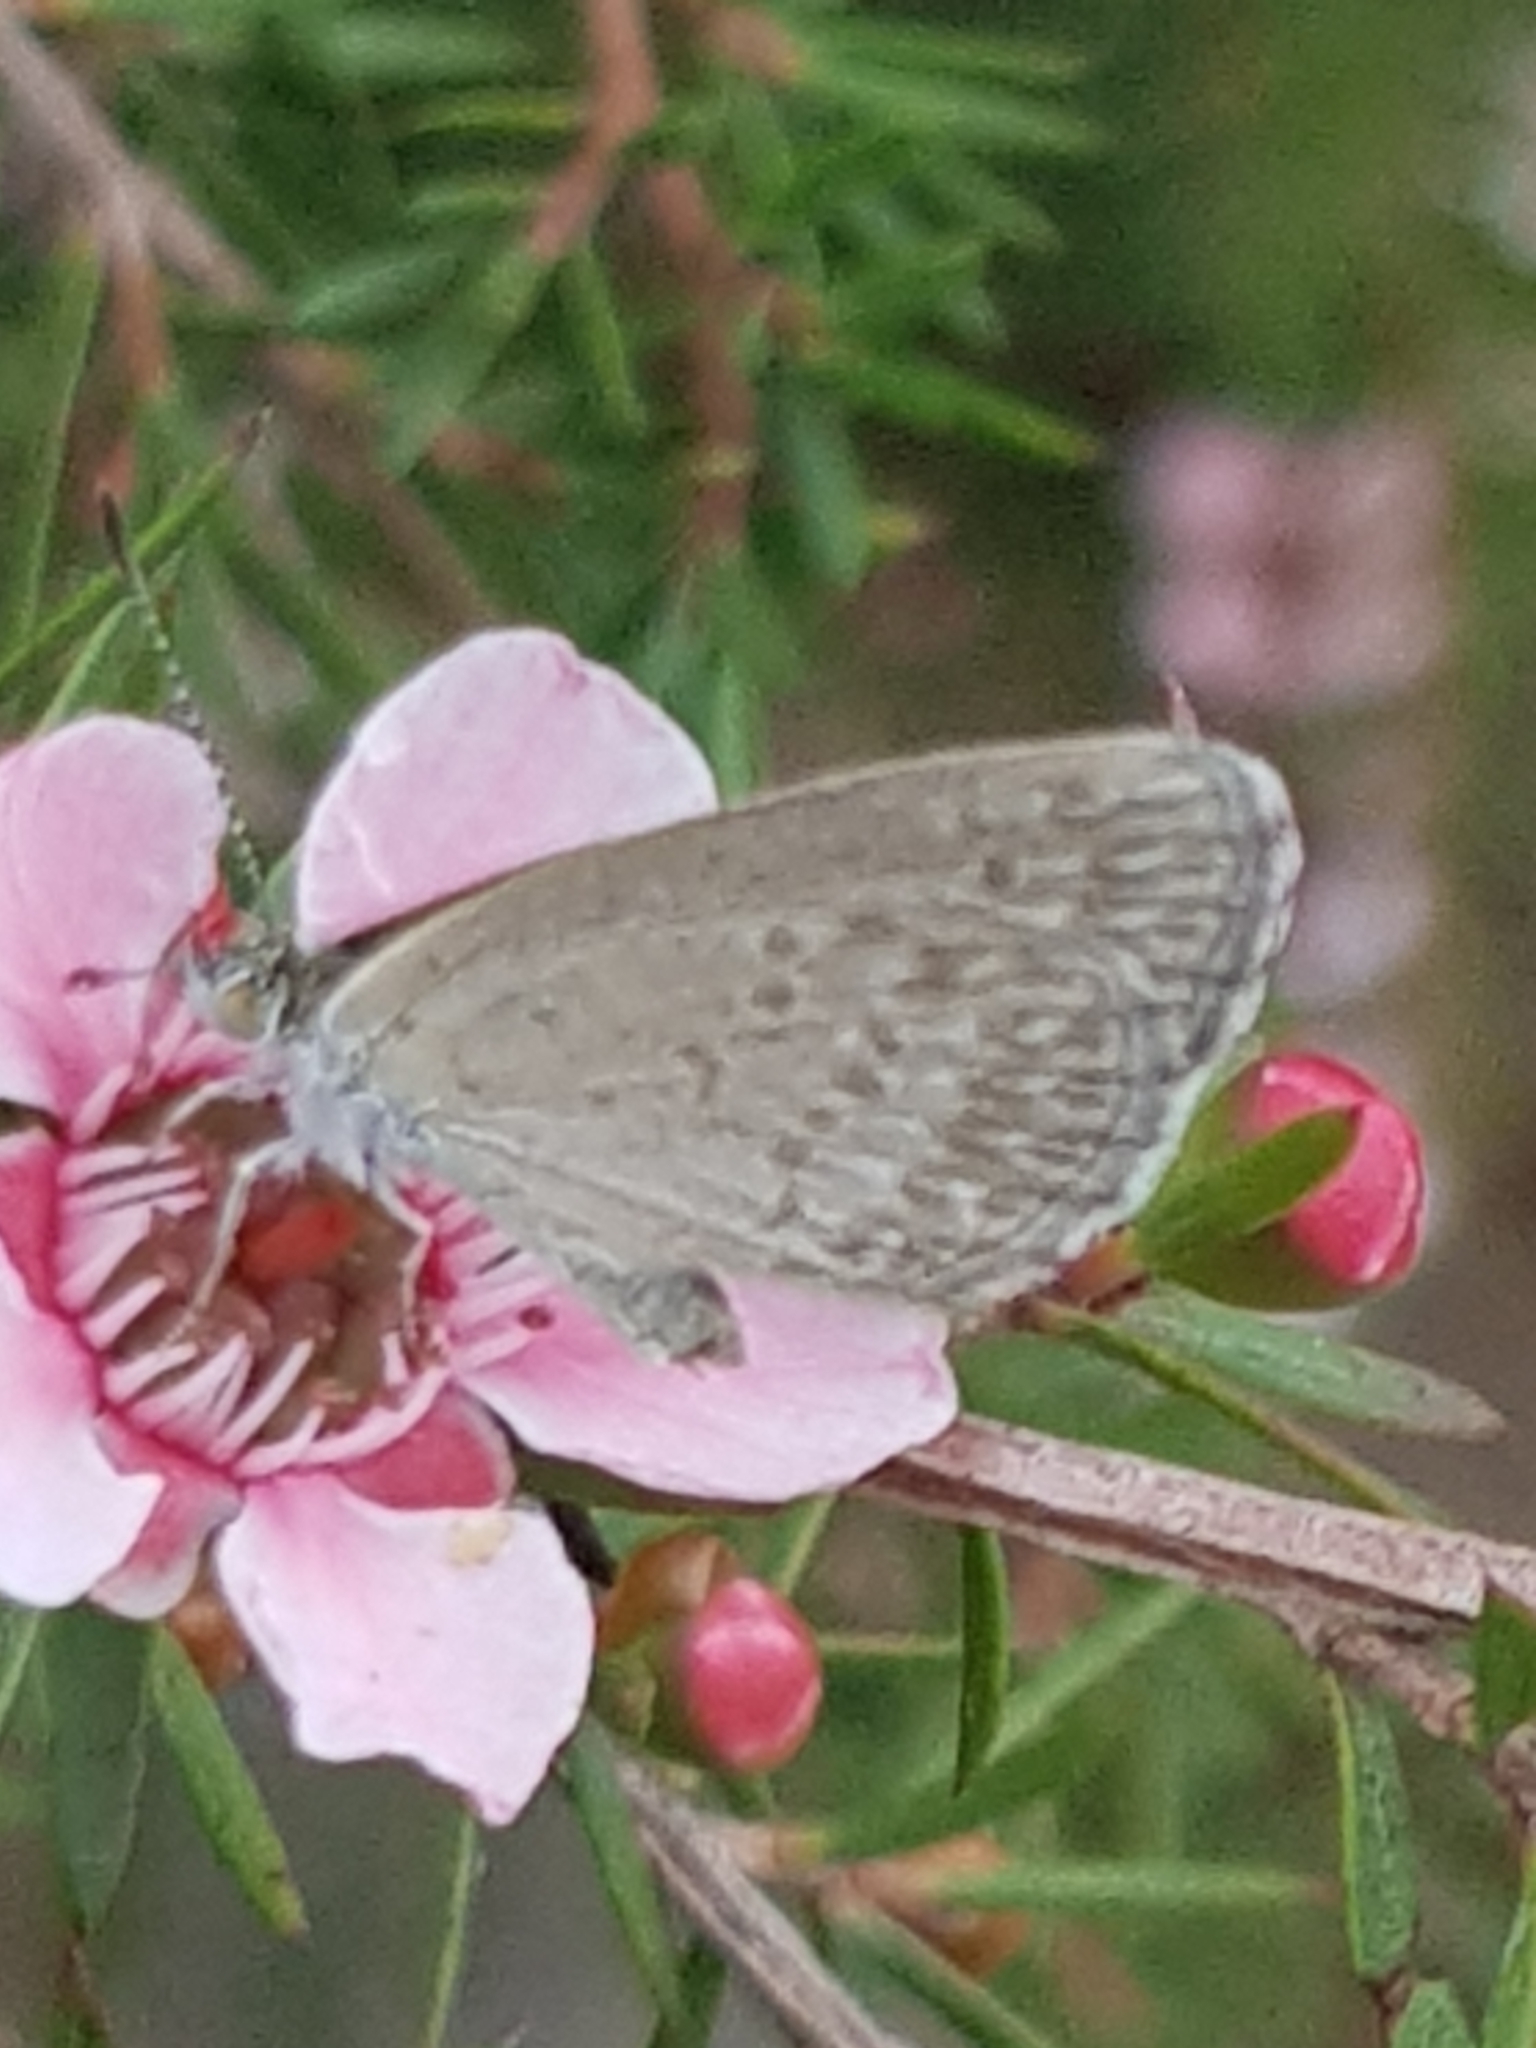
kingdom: Animalia
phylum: Arthropoda
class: Insecta
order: Lepidoptera
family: Lycaenidae
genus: Zizina
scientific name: Zizina labradus
